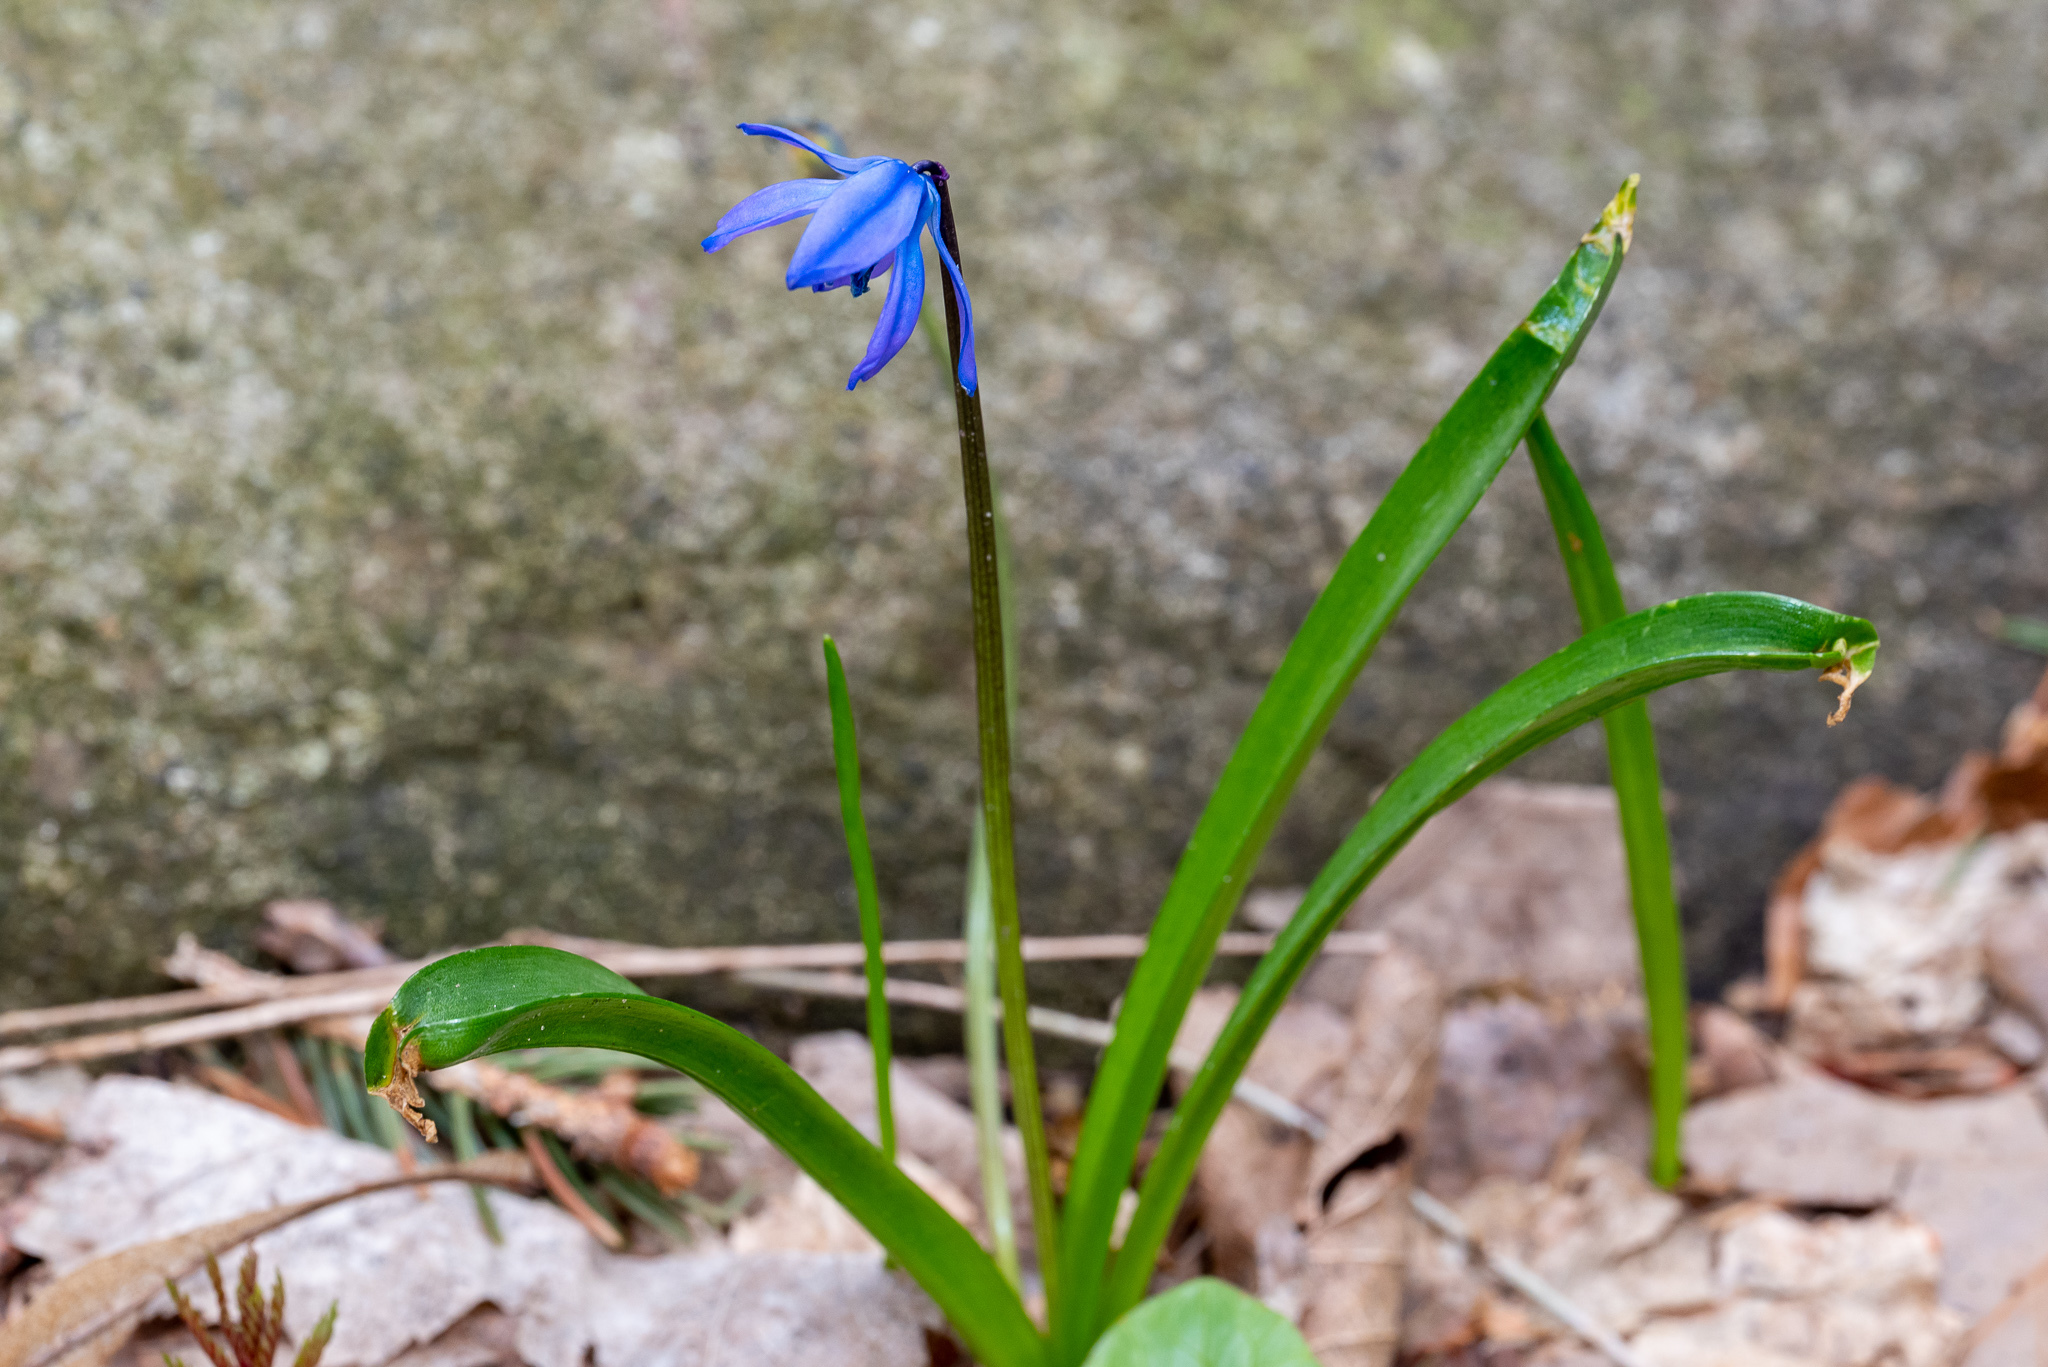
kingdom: Plantae
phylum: Tracheophyta
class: Liliopsida
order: Asparagales
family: Asparagaceae
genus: Scilla
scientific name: Scilla siberica
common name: Siberian squill
